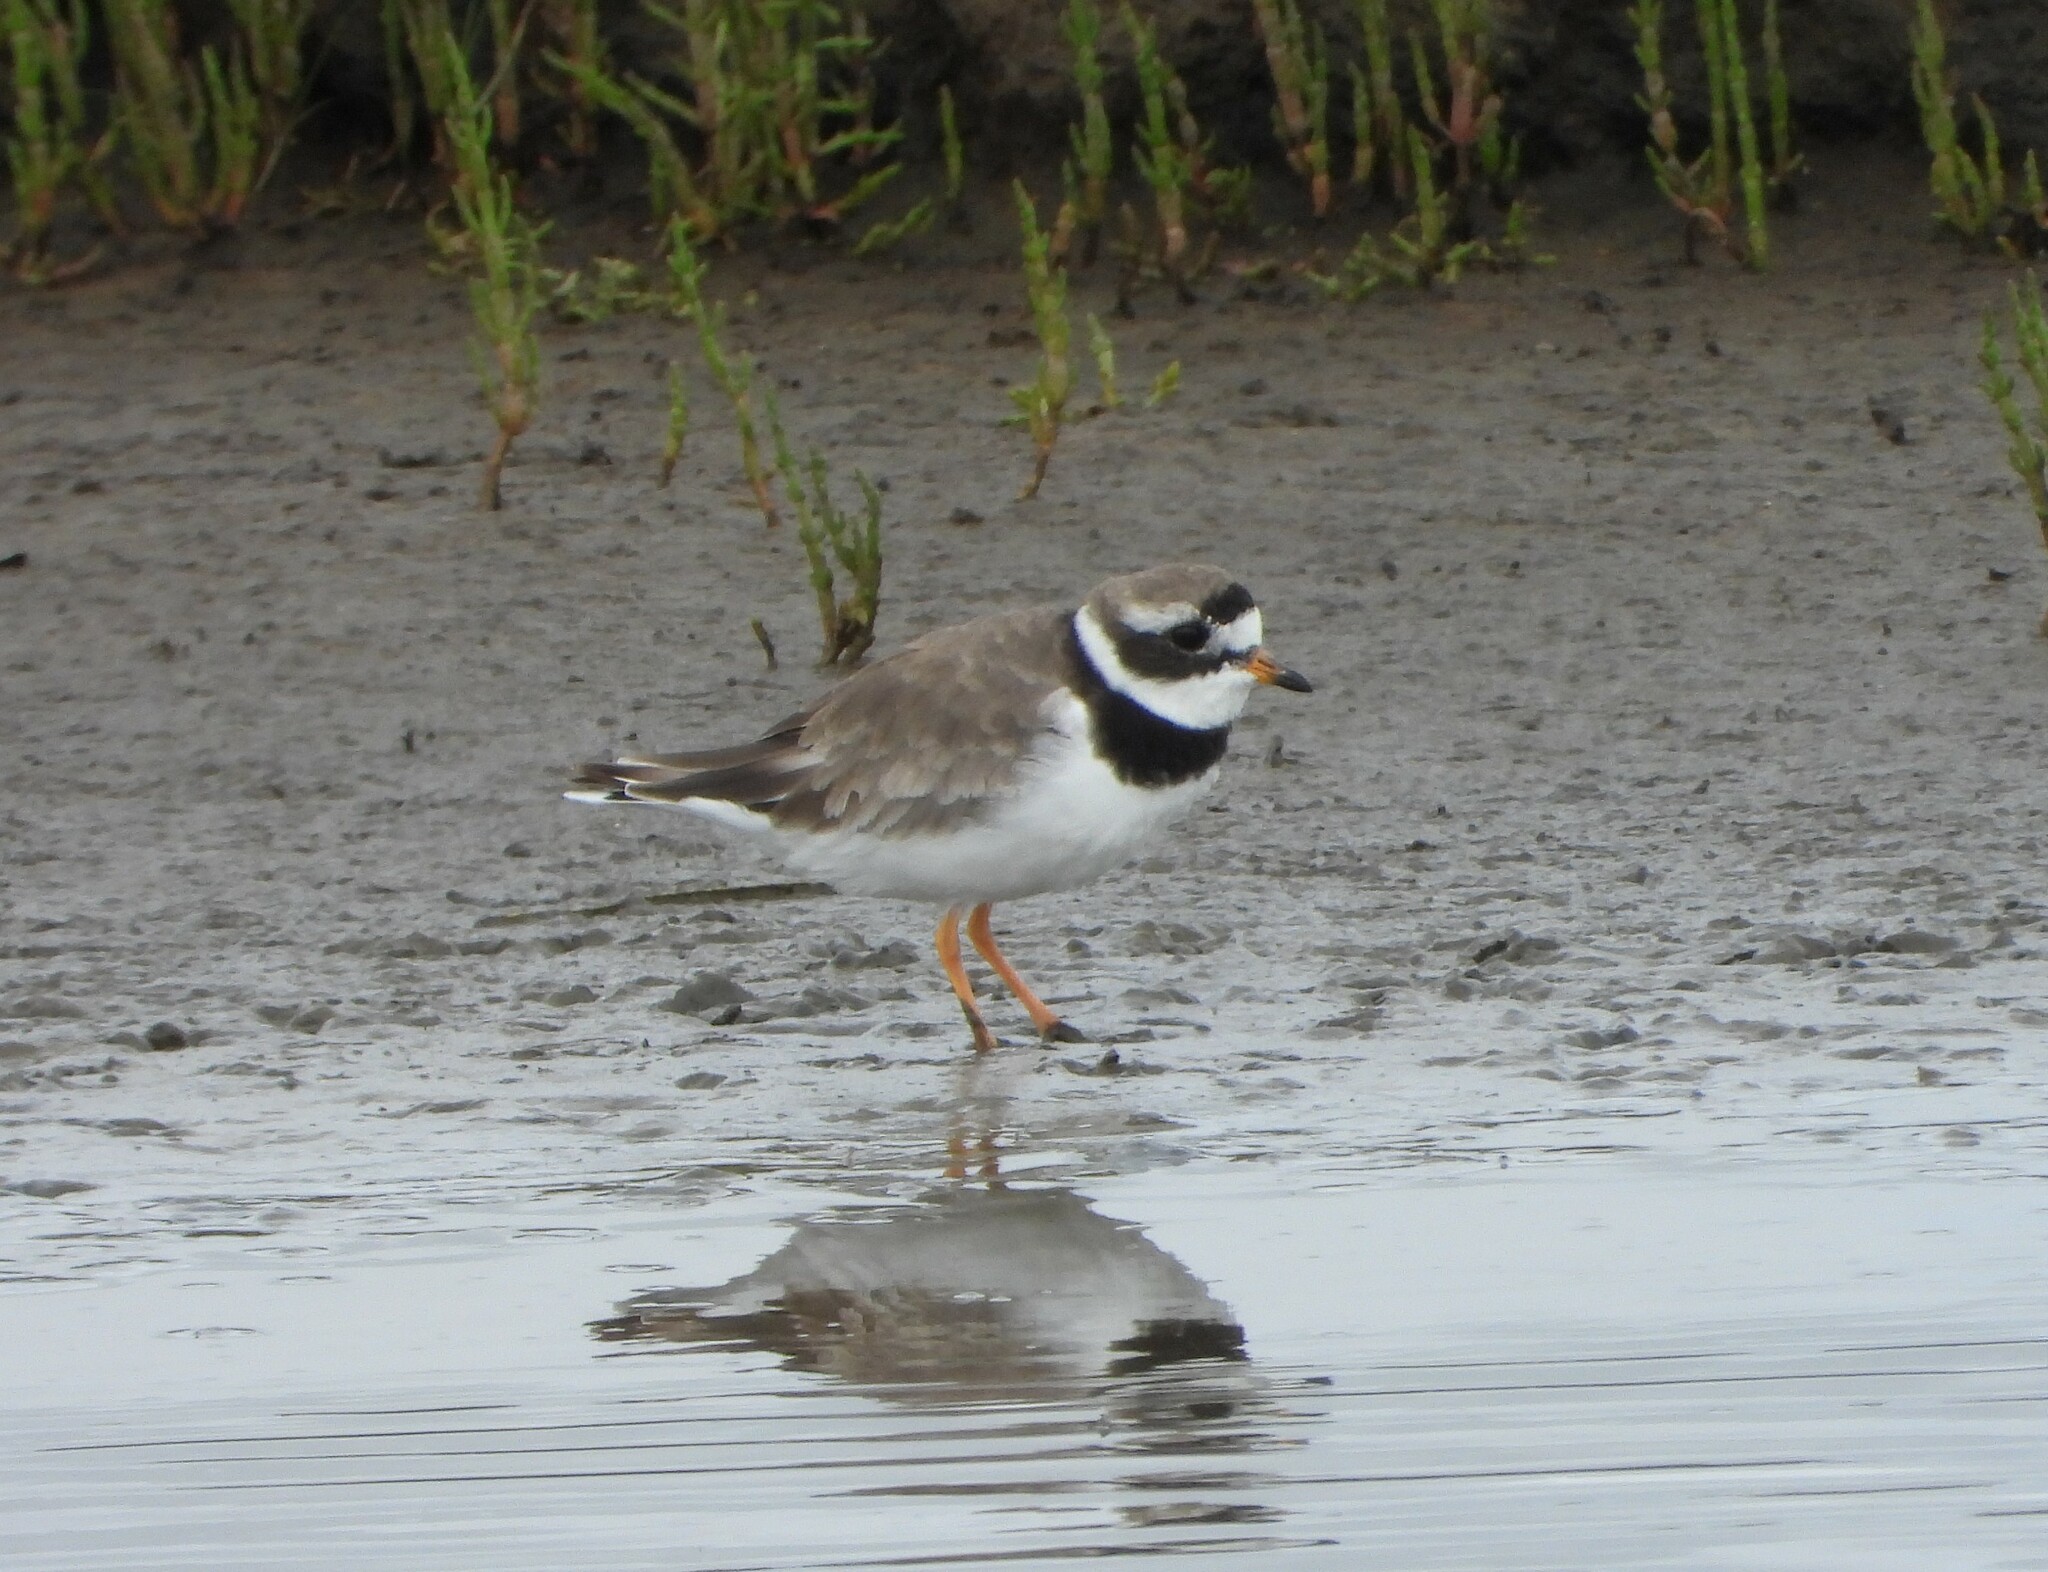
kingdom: Animalia
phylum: Chordata
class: Aves
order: Charadriiformes
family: Charadriidae
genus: Charadrius
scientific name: Charadrius hiaticula
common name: Common ringed plover
